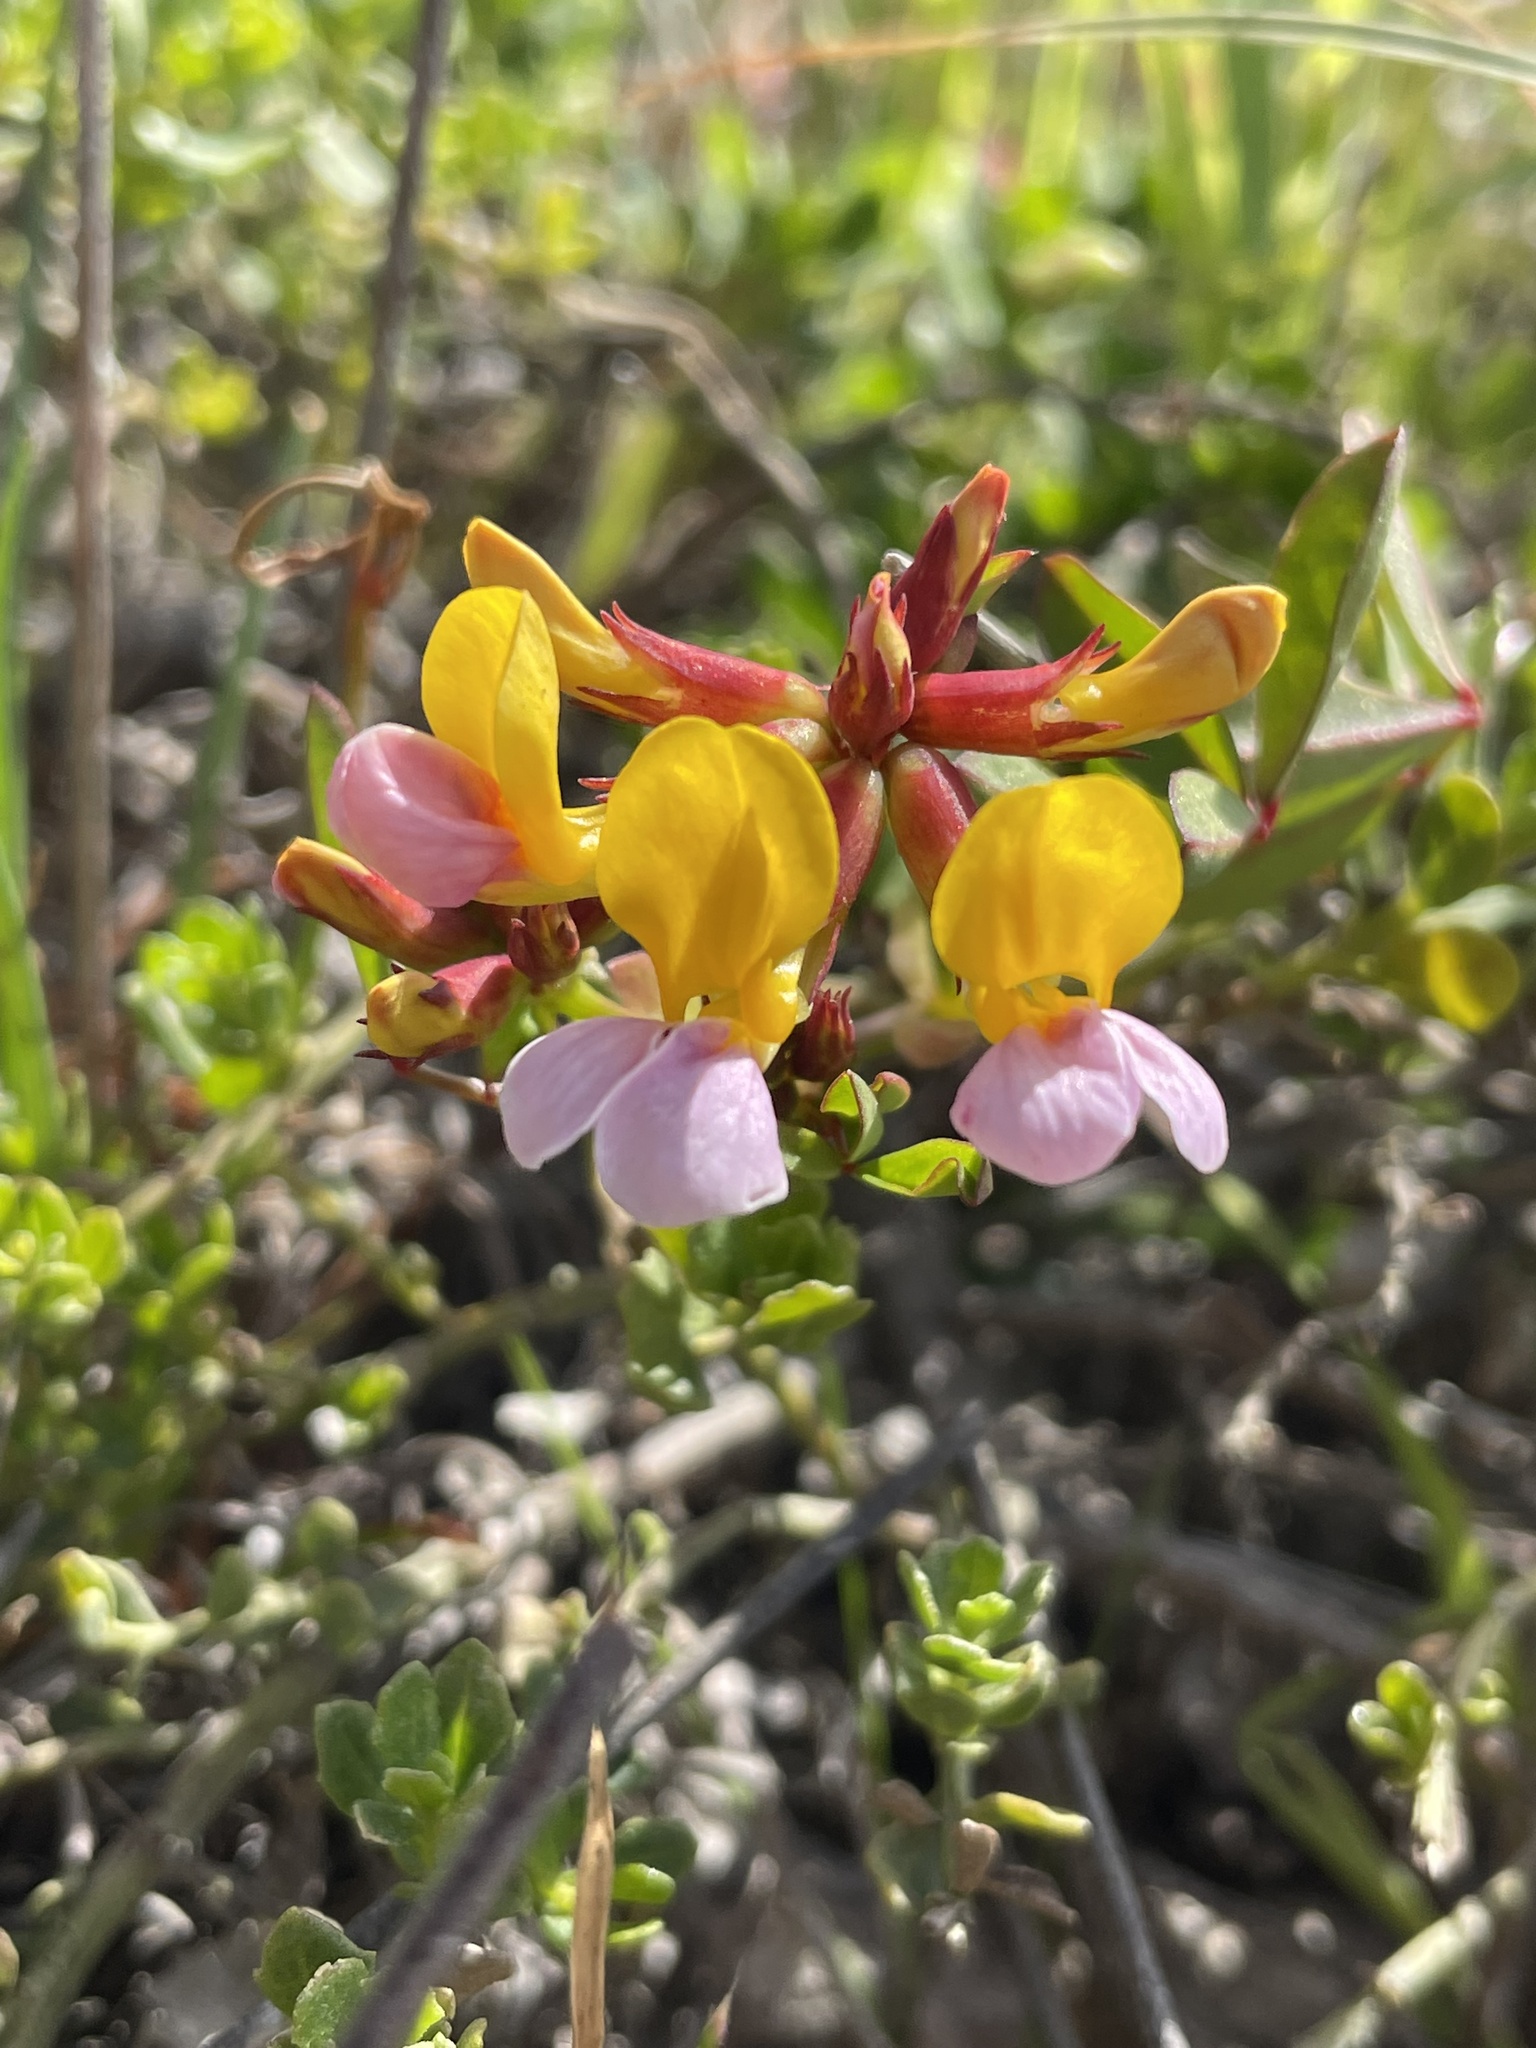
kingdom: Plantae
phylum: Tracheophyta
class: Magnoliopsida
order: Fabales
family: Fabaceae
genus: Hosackia
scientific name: Hosackia gracilis
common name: Seaside bird's-foot lotus
